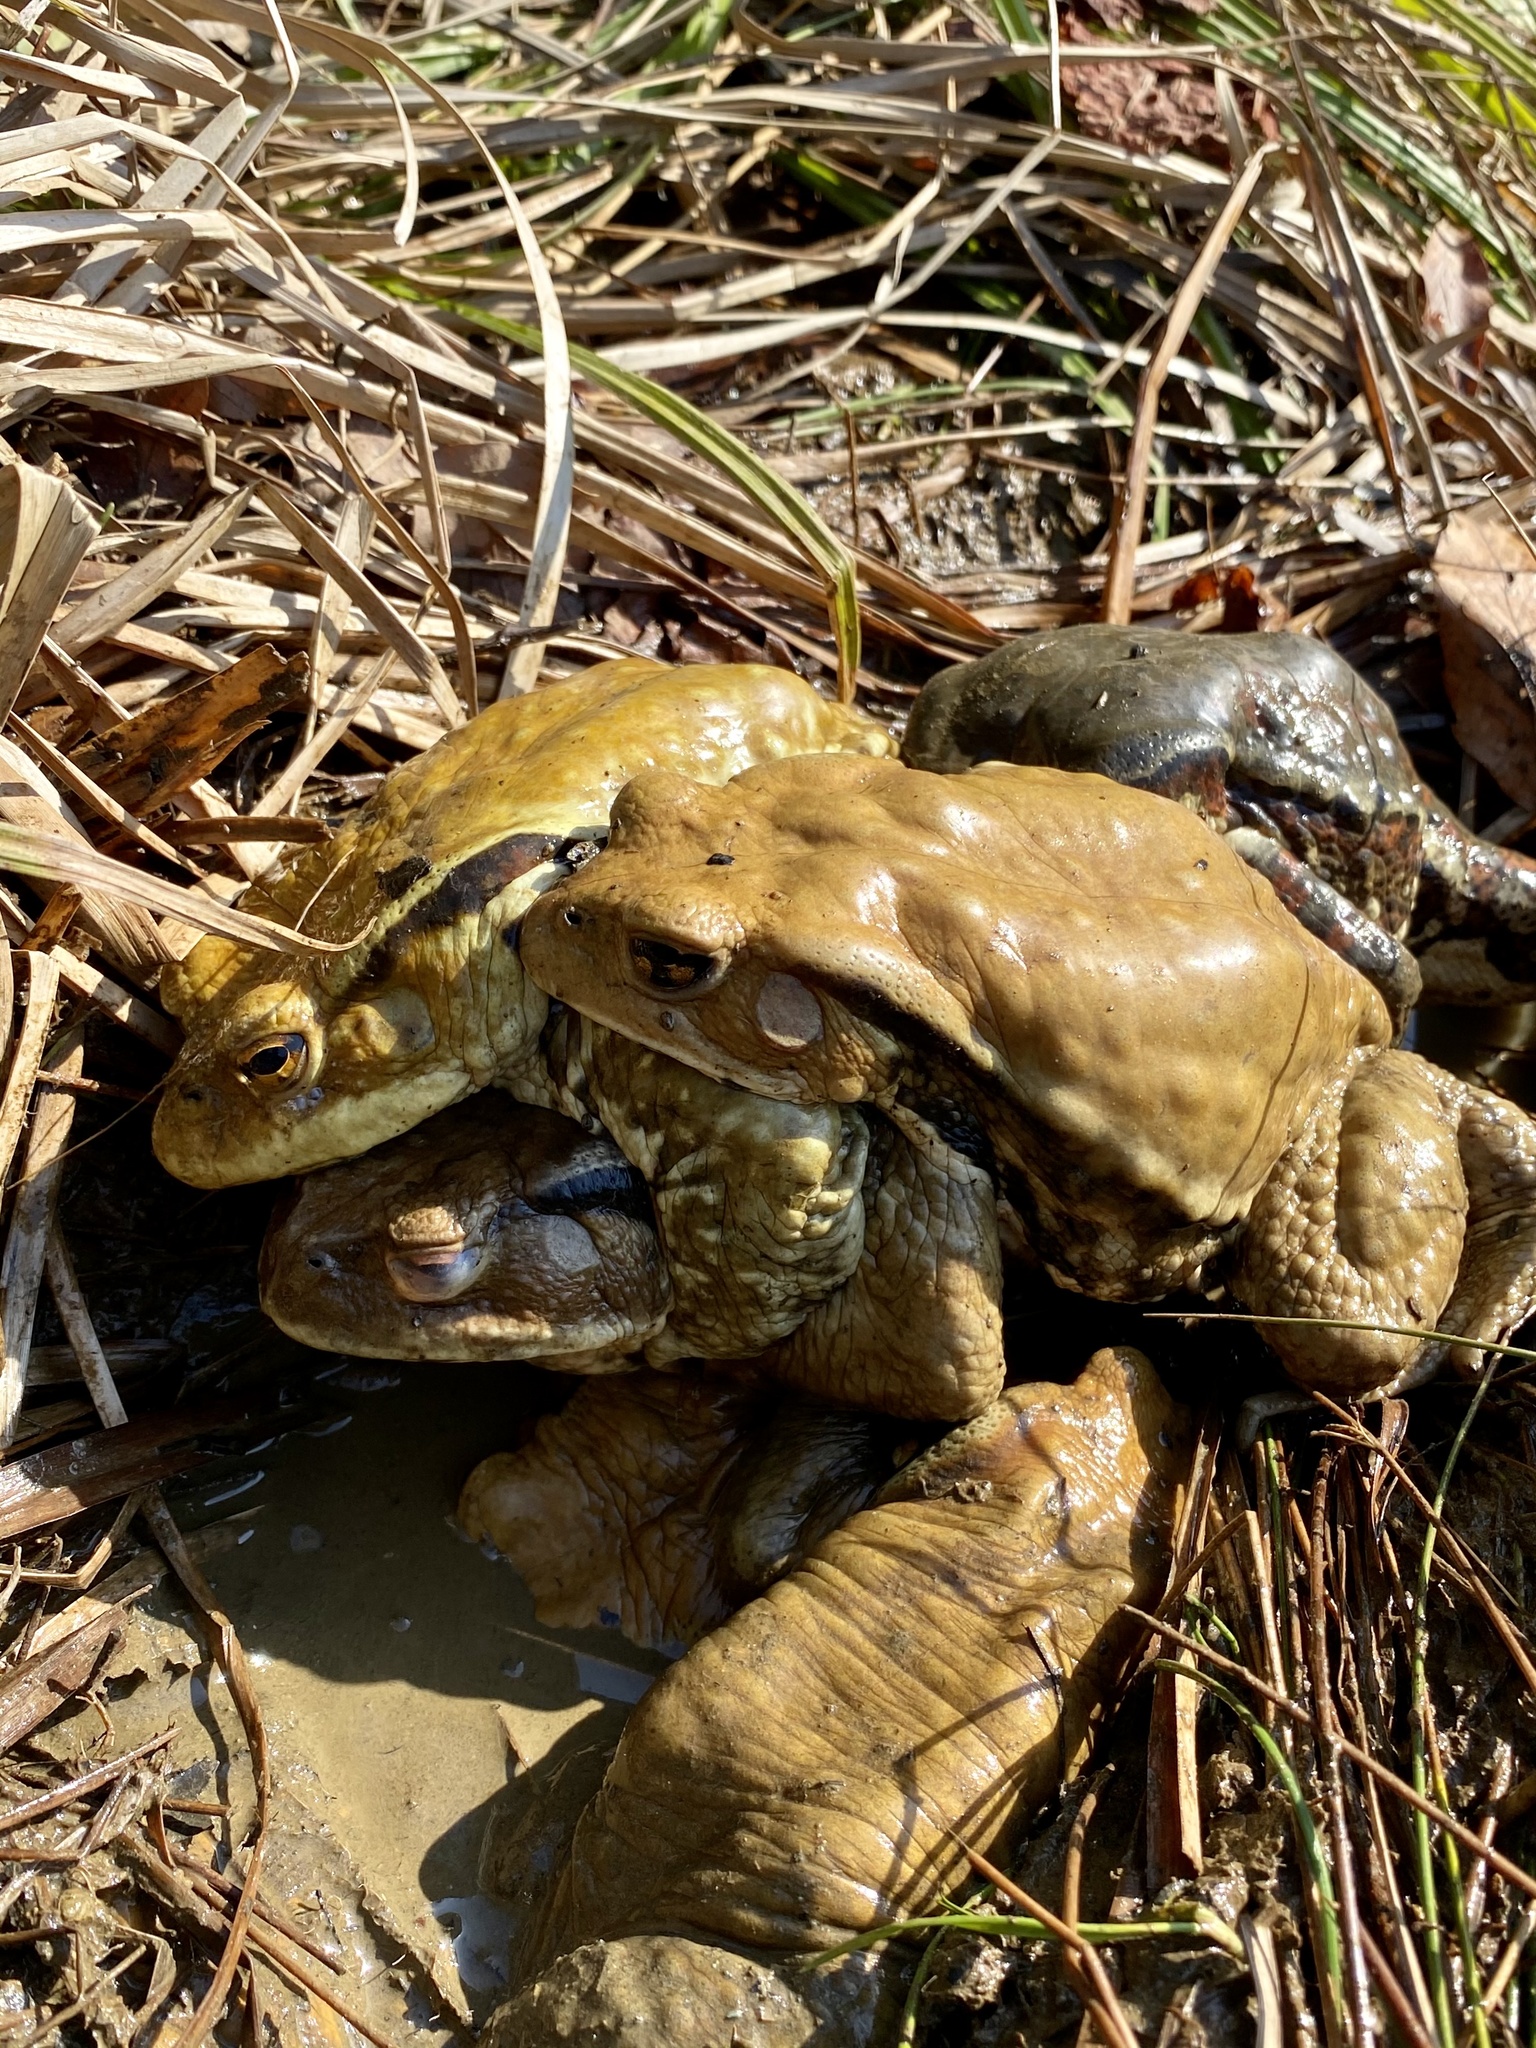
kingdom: Animalia
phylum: Chordata
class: Amphibia
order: Anura
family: Bufonidae
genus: Bufo
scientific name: Bufo japonicus
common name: Japanese common toad
